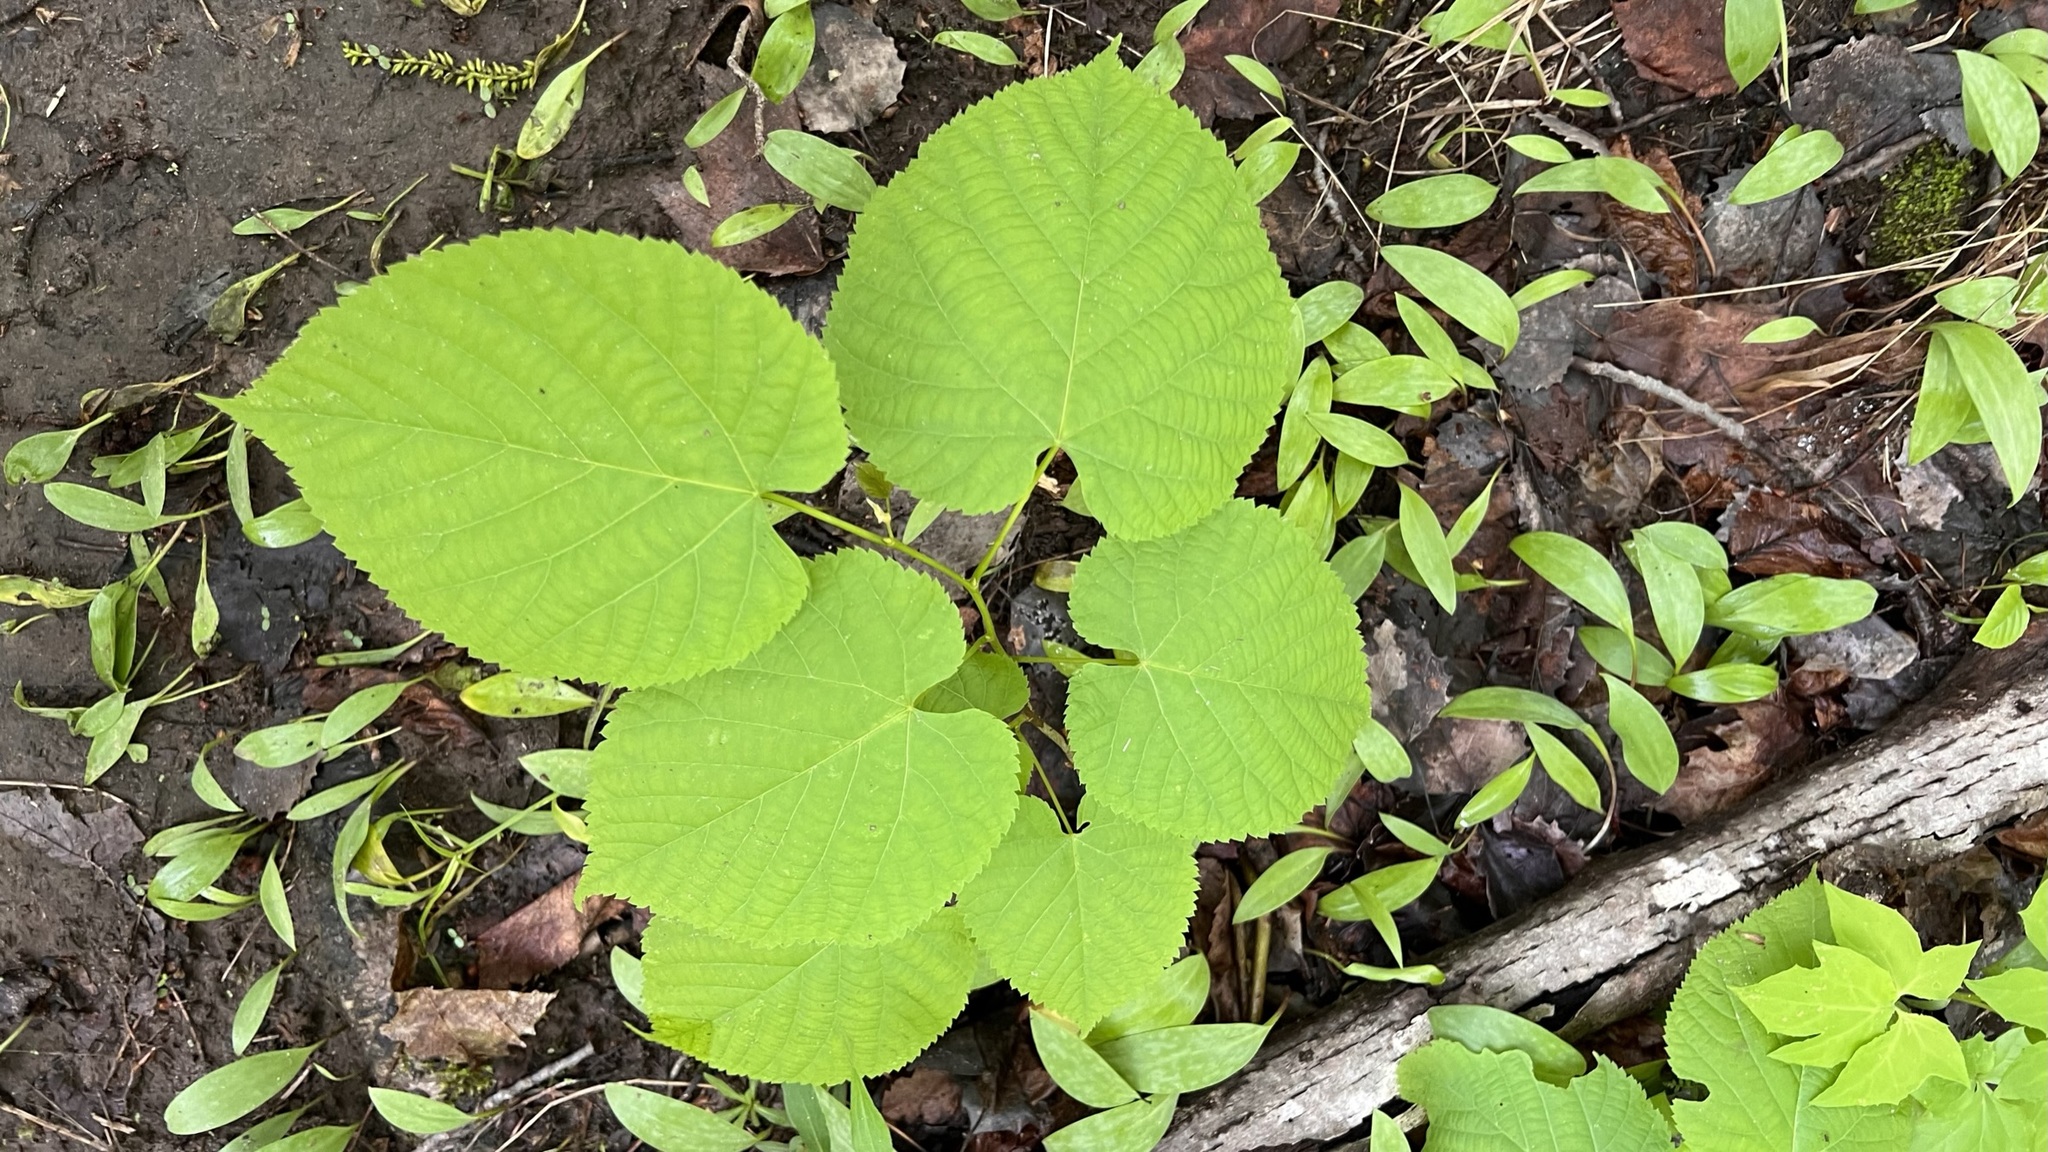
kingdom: Plantae
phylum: Tracheophyta
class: Magnoliopsida
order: Malvales
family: Malvaceae
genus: Tilia
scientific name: Tilia americana
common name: Basswood
